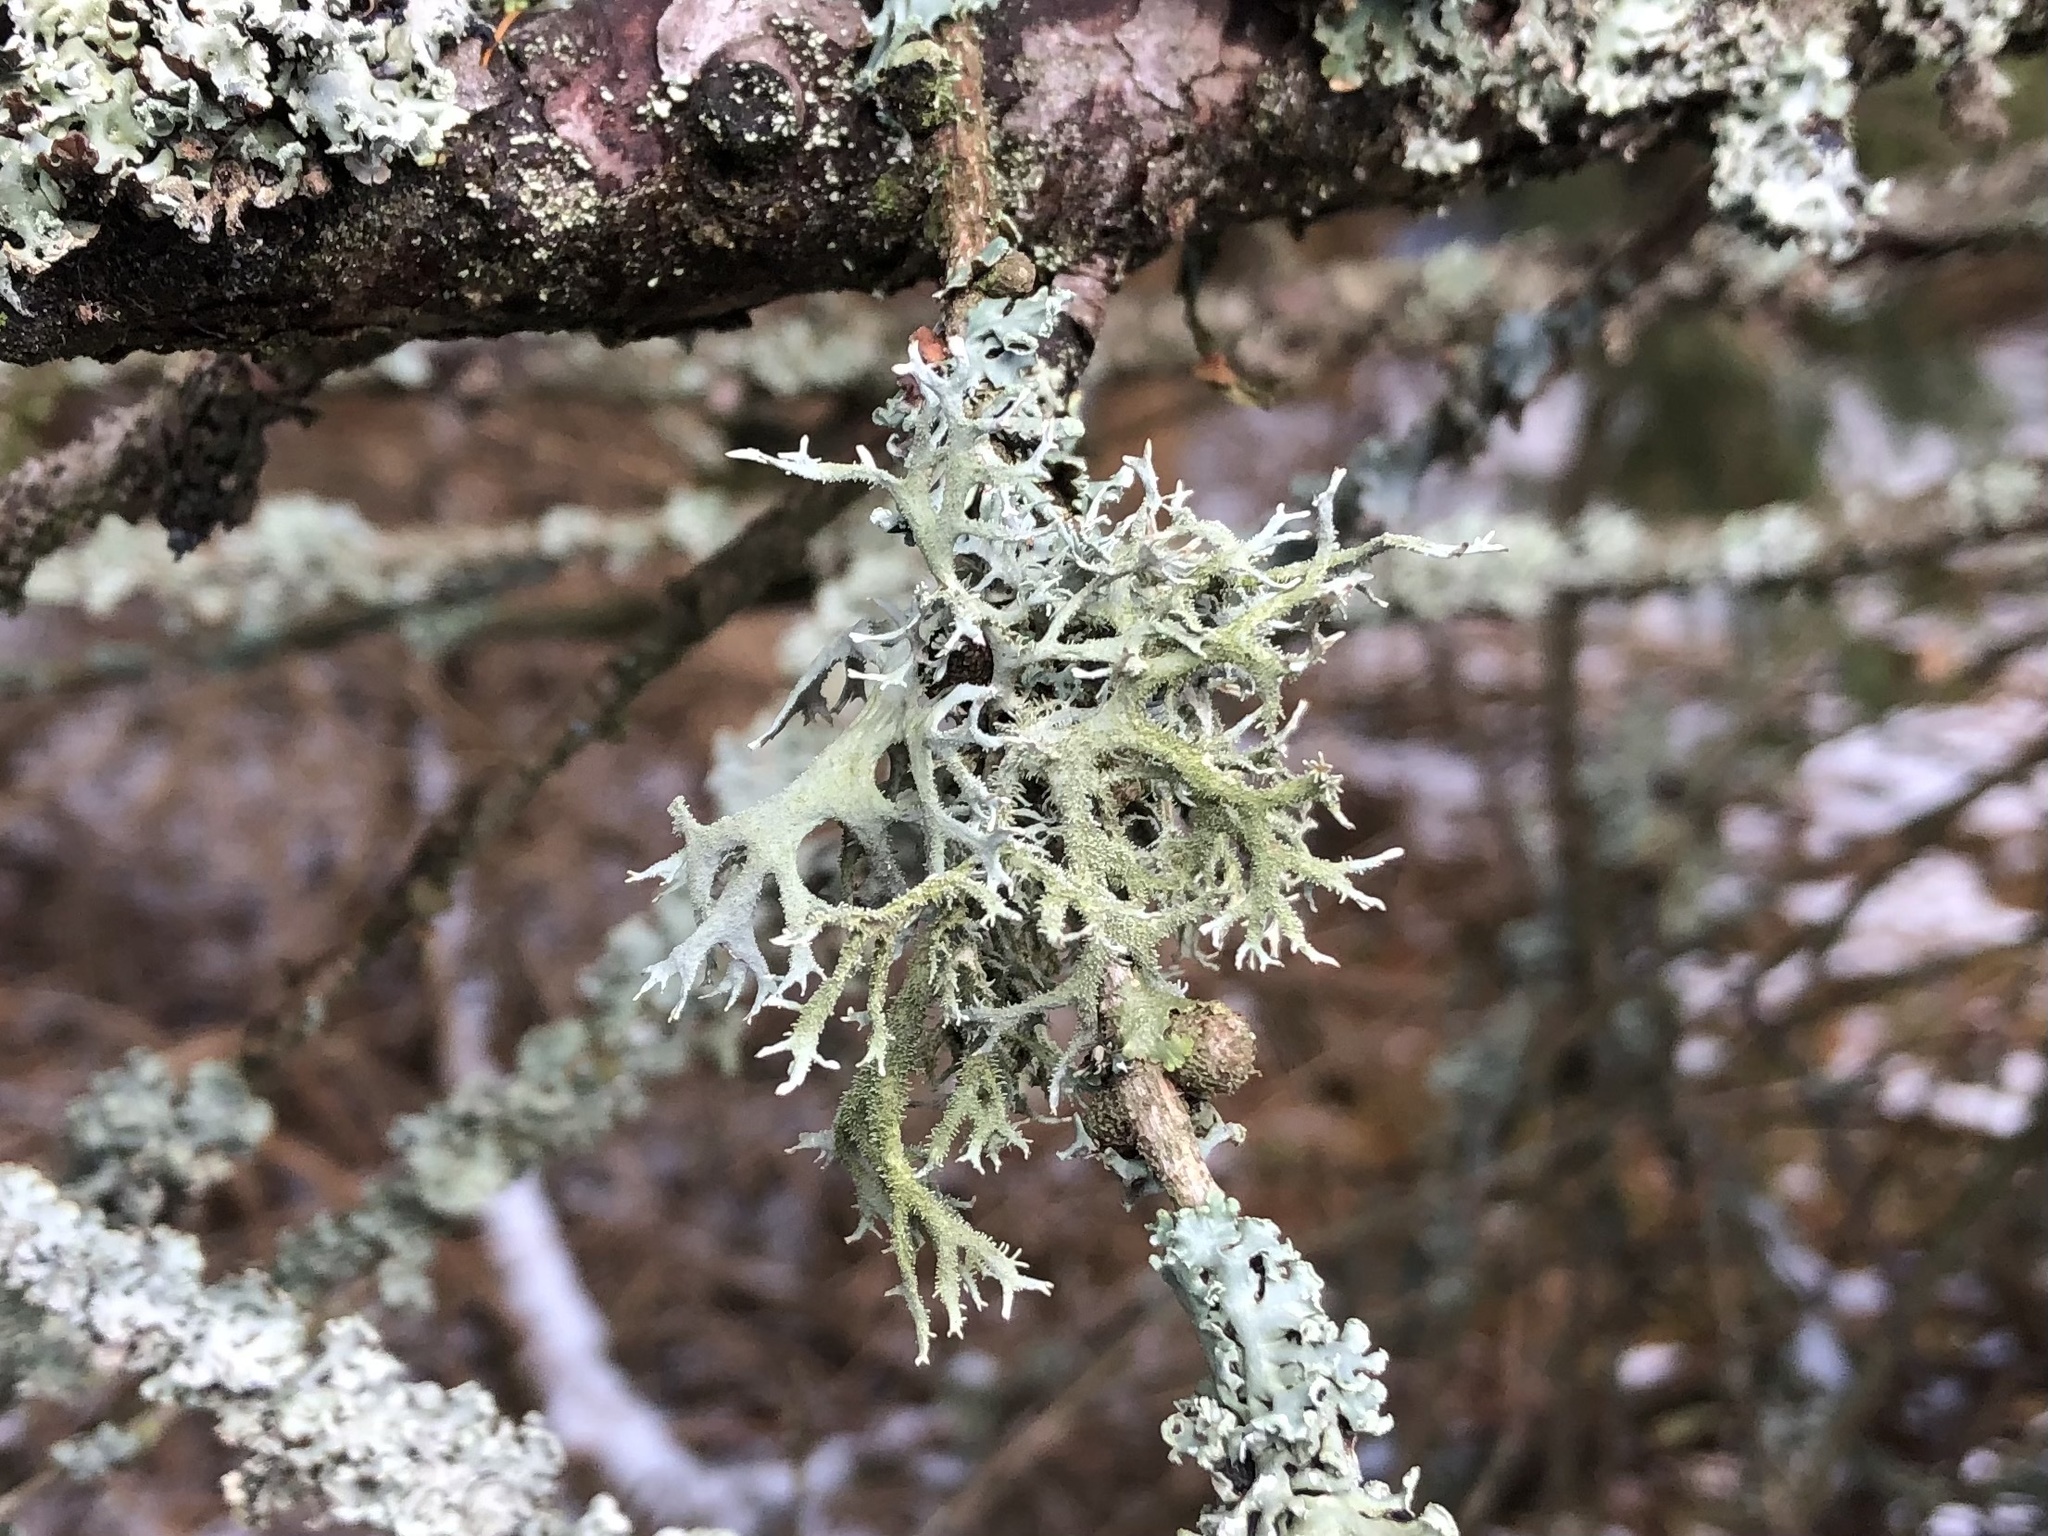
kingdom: Fungi
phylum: Ascomycota
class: Lecanoromycetes
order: Lecanorales
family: Parmeliaceae
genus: Pseudevernia
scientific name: Pseudevernia furfuracea
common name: Tree moss
